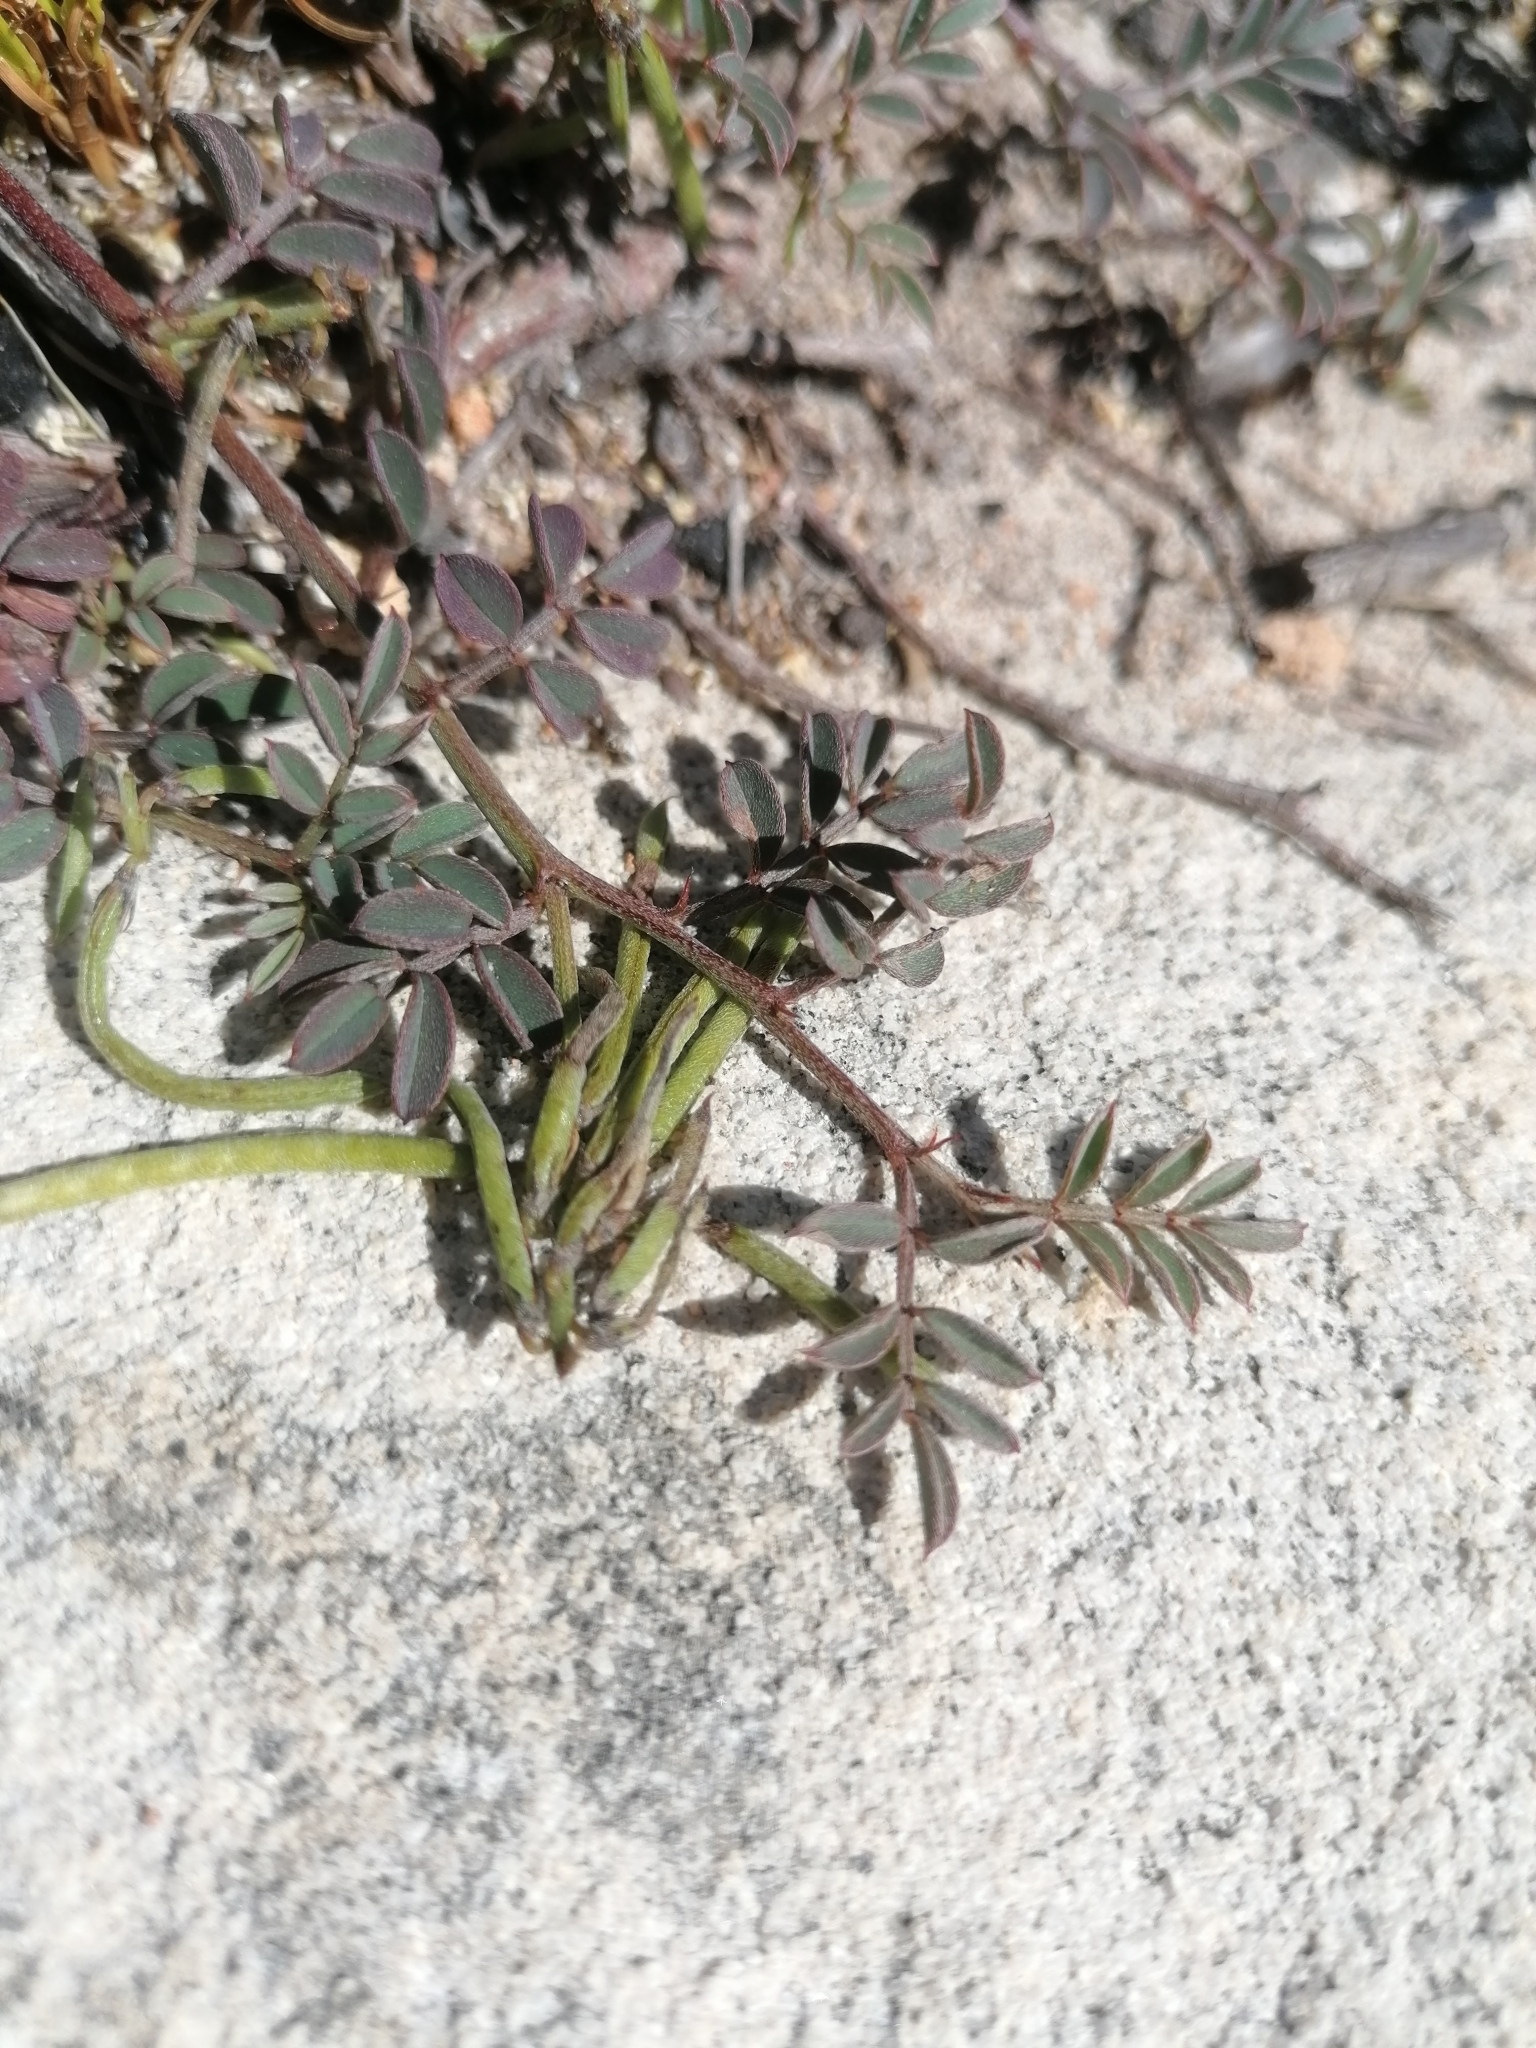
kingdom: Plantae
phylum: Tracheophyta
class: Magnoliopsida
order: Fabales
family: Fabaceae
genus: Indigofera
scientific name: Indigofera
